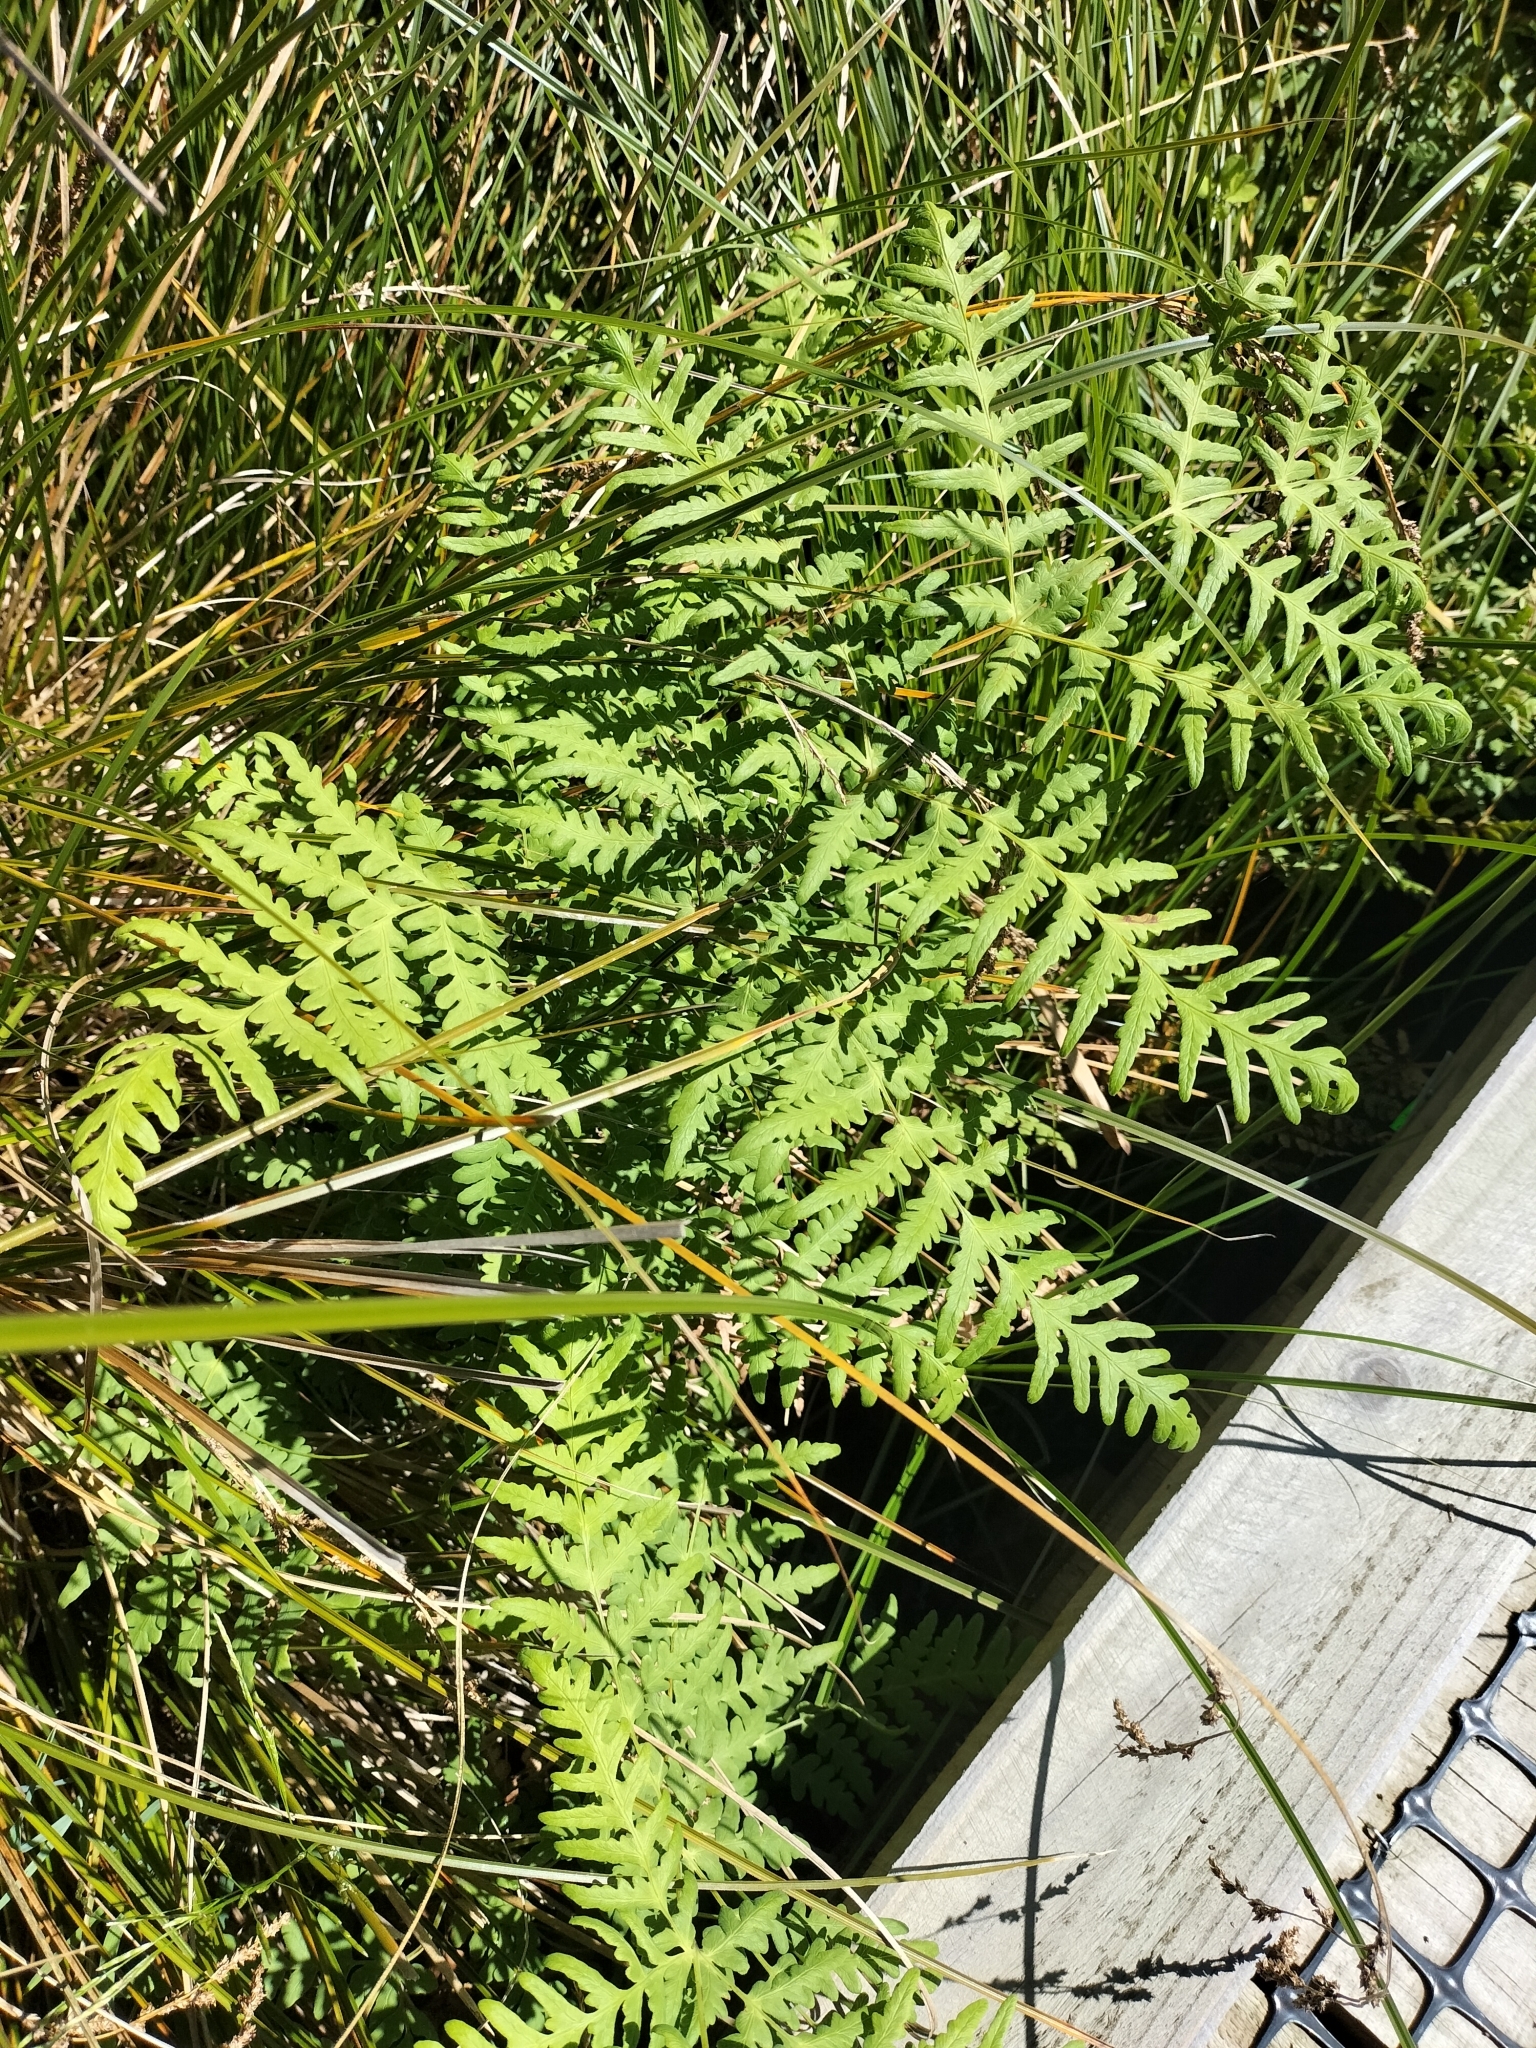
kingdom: Plantae
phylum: Tracheophyta
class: Polypodiopsida
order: Polypodiales
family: Dennstaedtiaceae
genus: Histiopteris
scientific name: Histiopteris incisa
